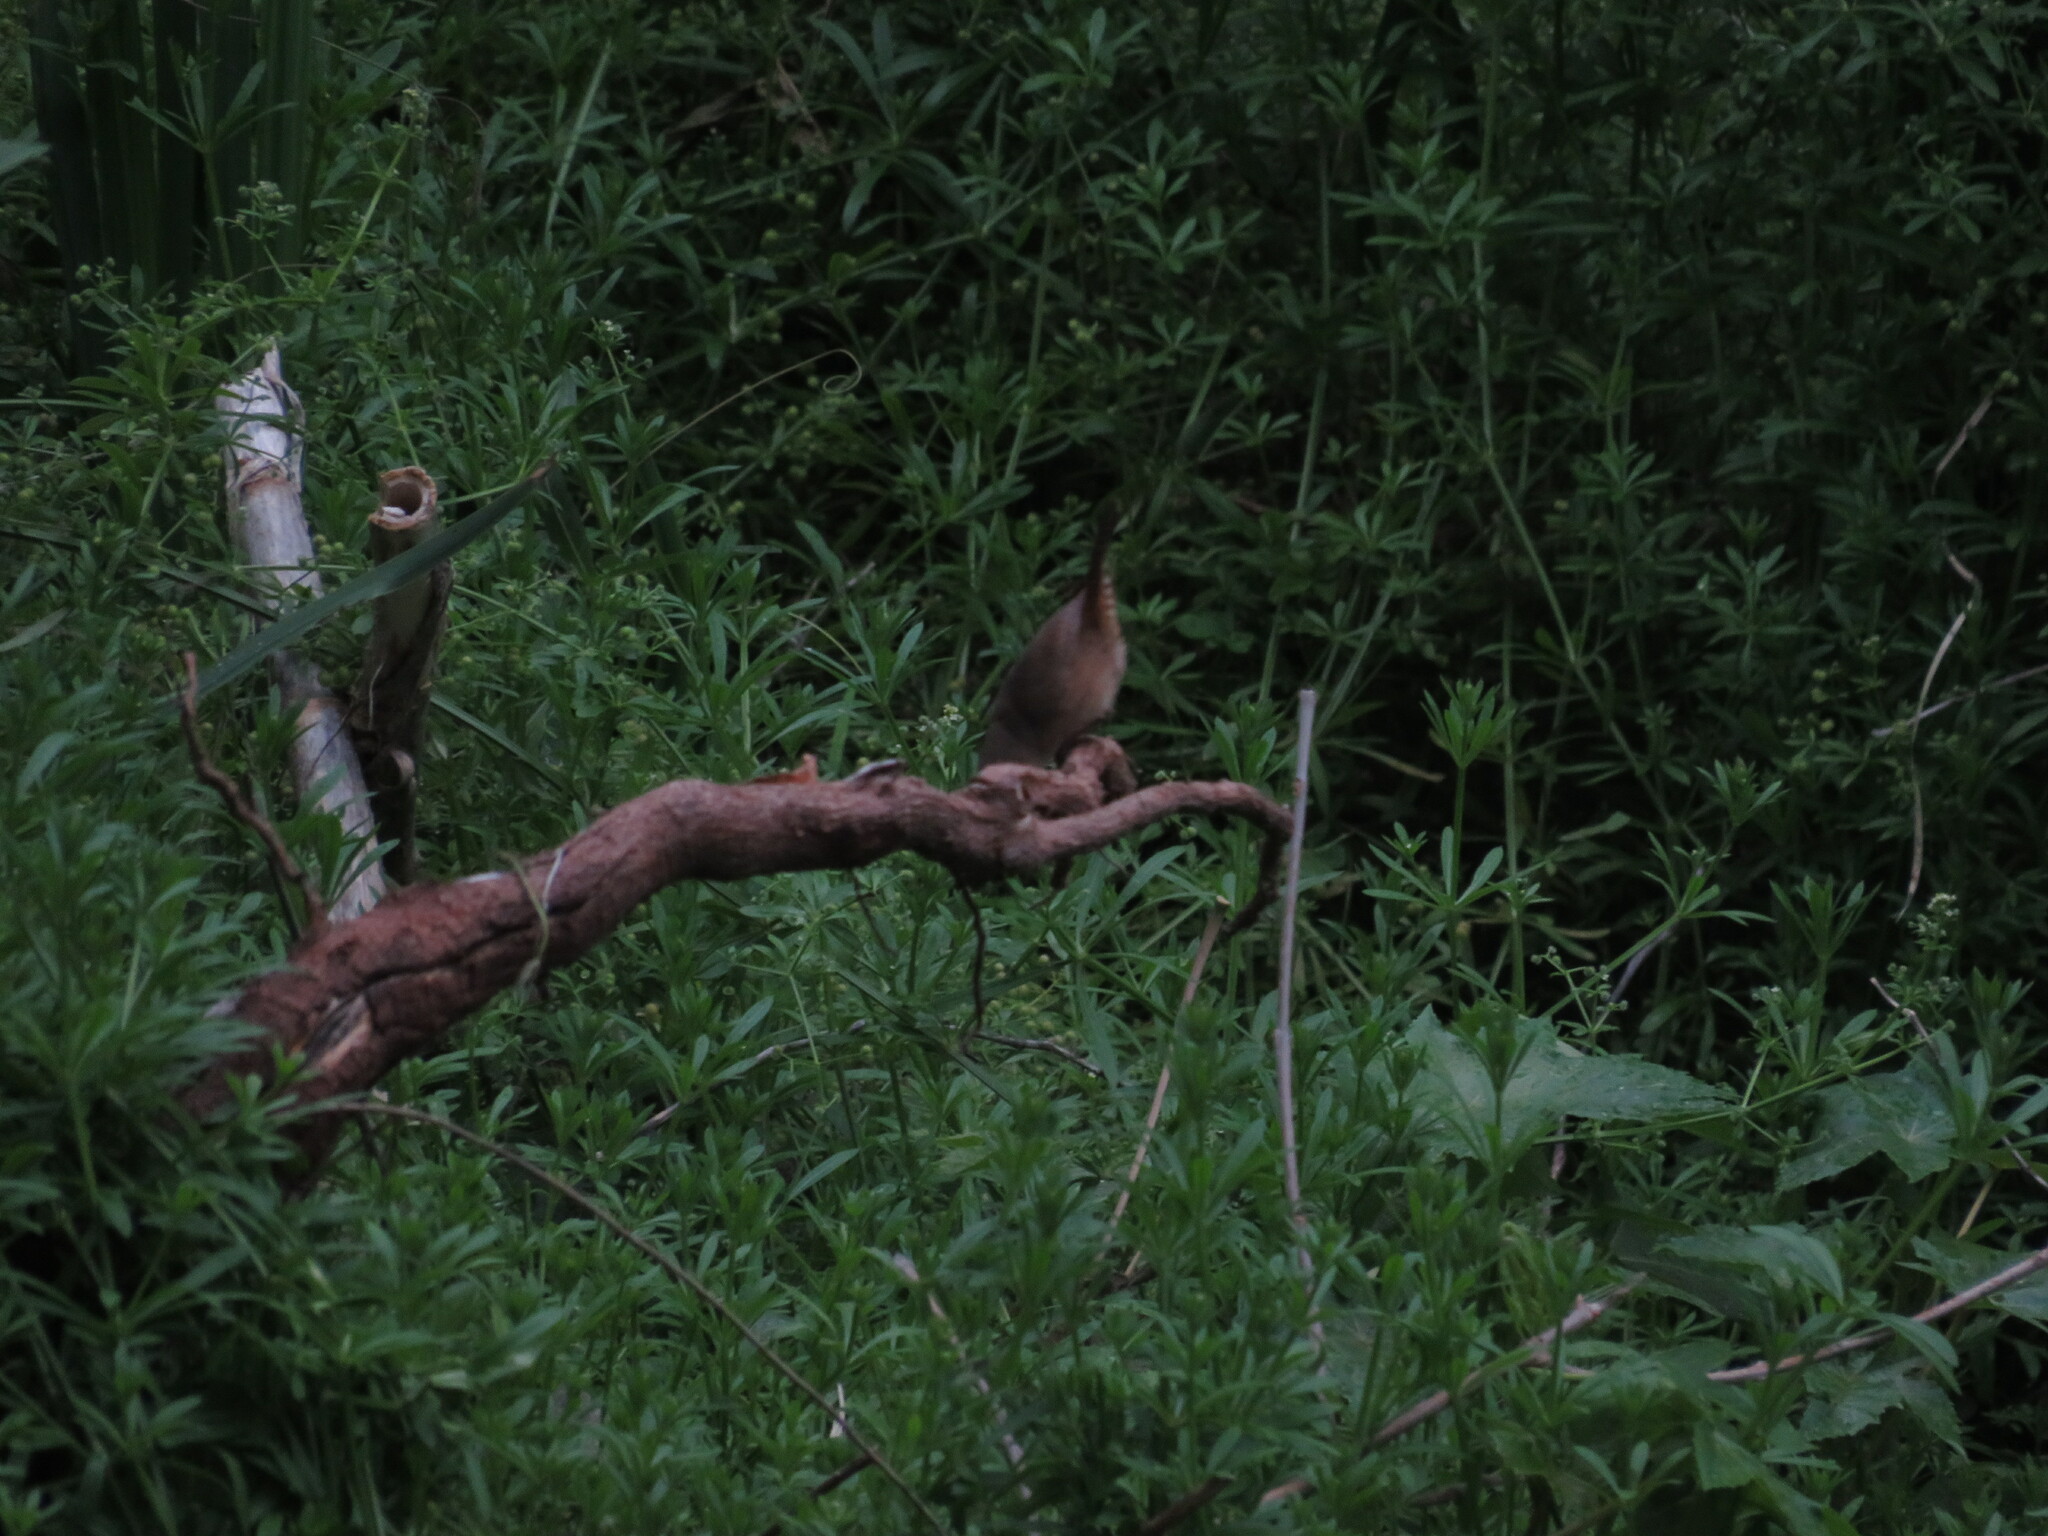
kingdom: Animalia
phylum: Chordata
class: Aves
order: Passeriformes
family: Troglodytidae
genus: Troglodytes
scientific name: Troglodytes aedon
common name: House wren
